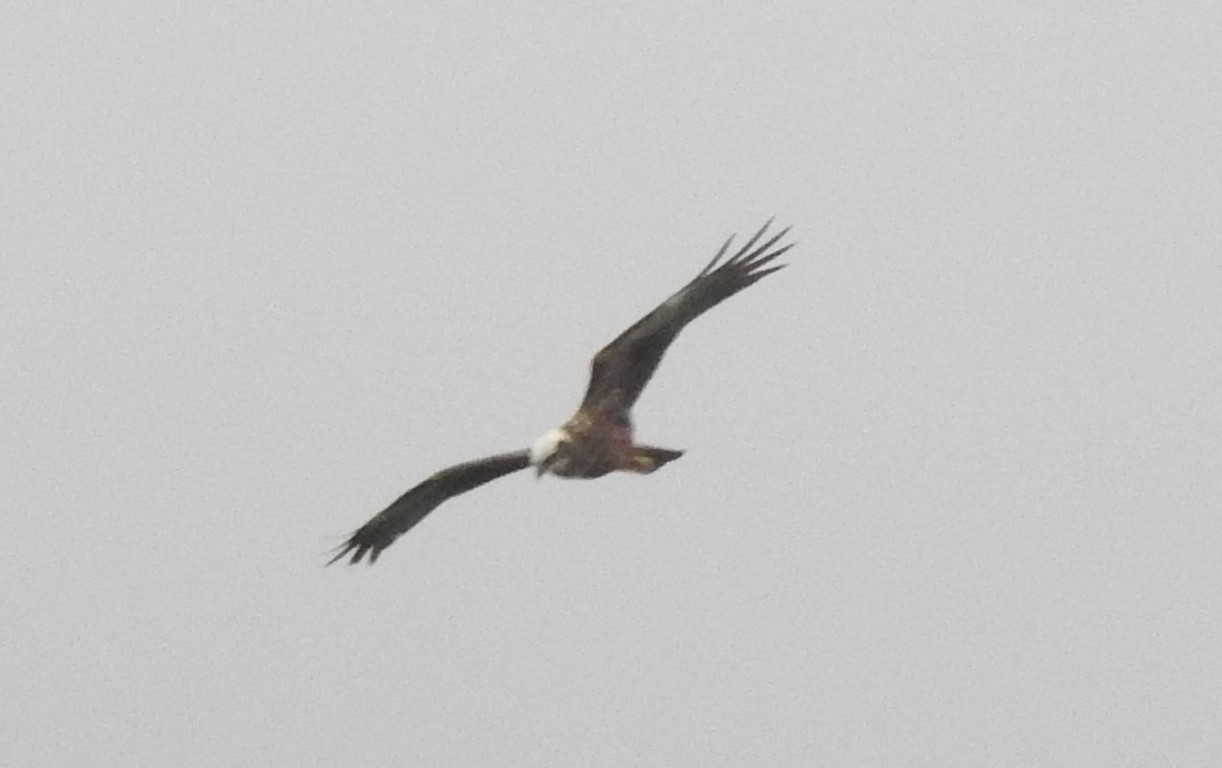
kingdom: Animalia
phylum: Chordata
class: Aves
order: Accipitriformes
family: Accipitridae
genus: Circus
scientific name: Circus aeruginosus
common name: Western marsh harrier
